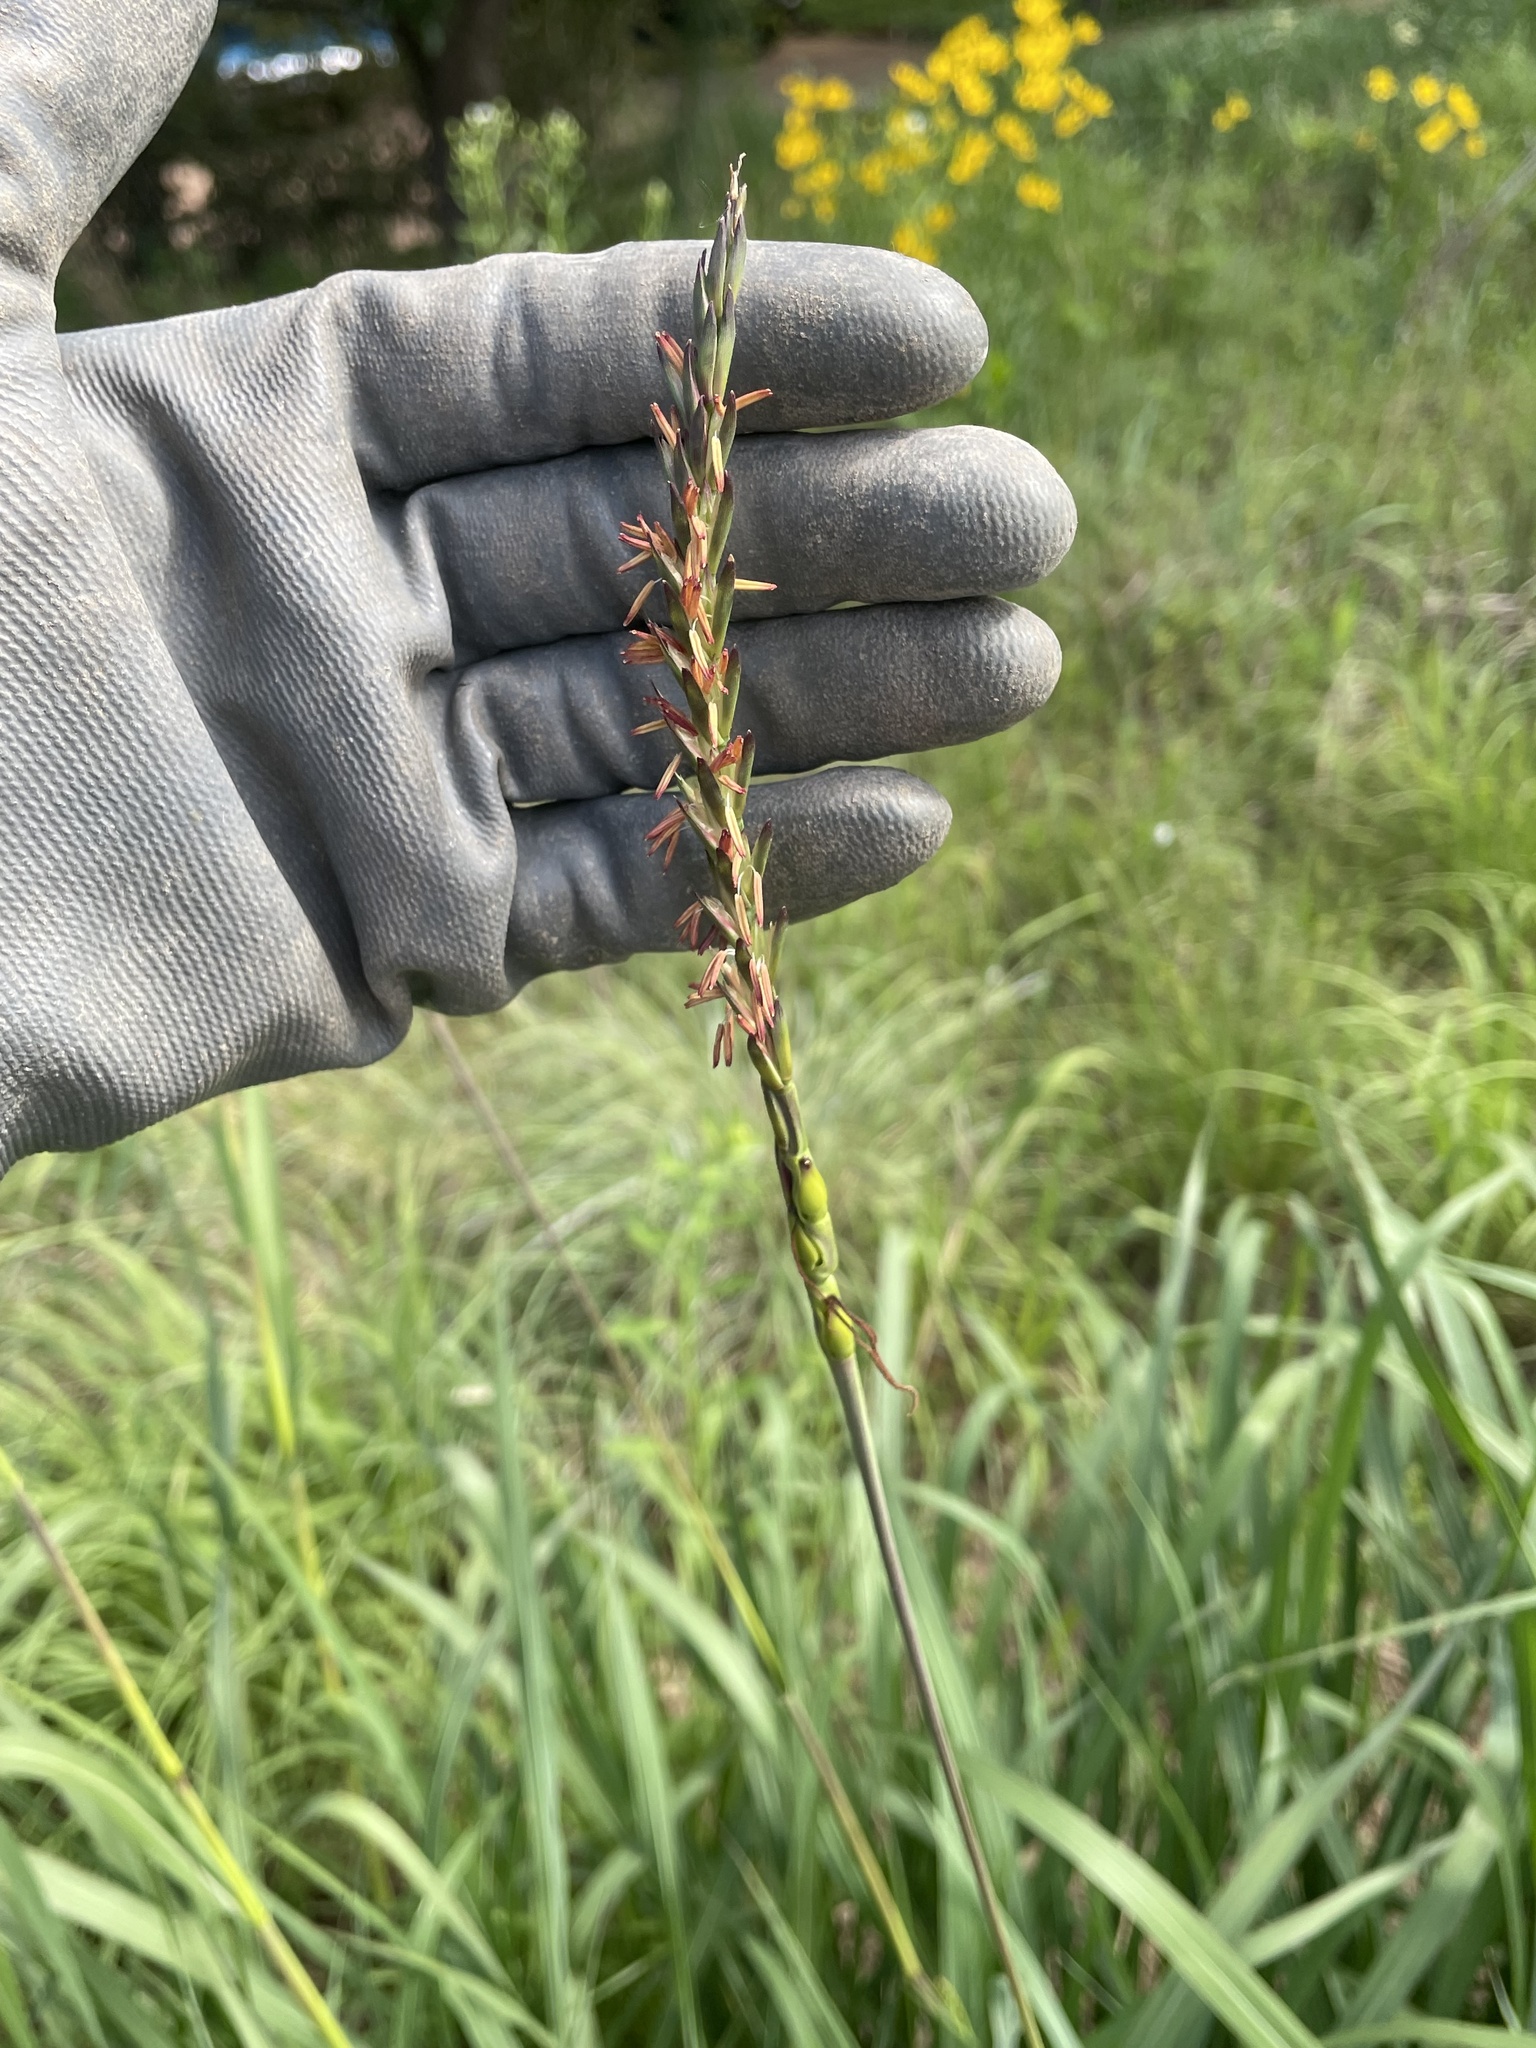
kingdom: Plantae
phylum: Tracheophyta
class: Liliopsida
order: Poales
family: Poaceae
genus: Tripsacum
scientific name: Tripsacum dactyloides
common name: Buffalo-grass
